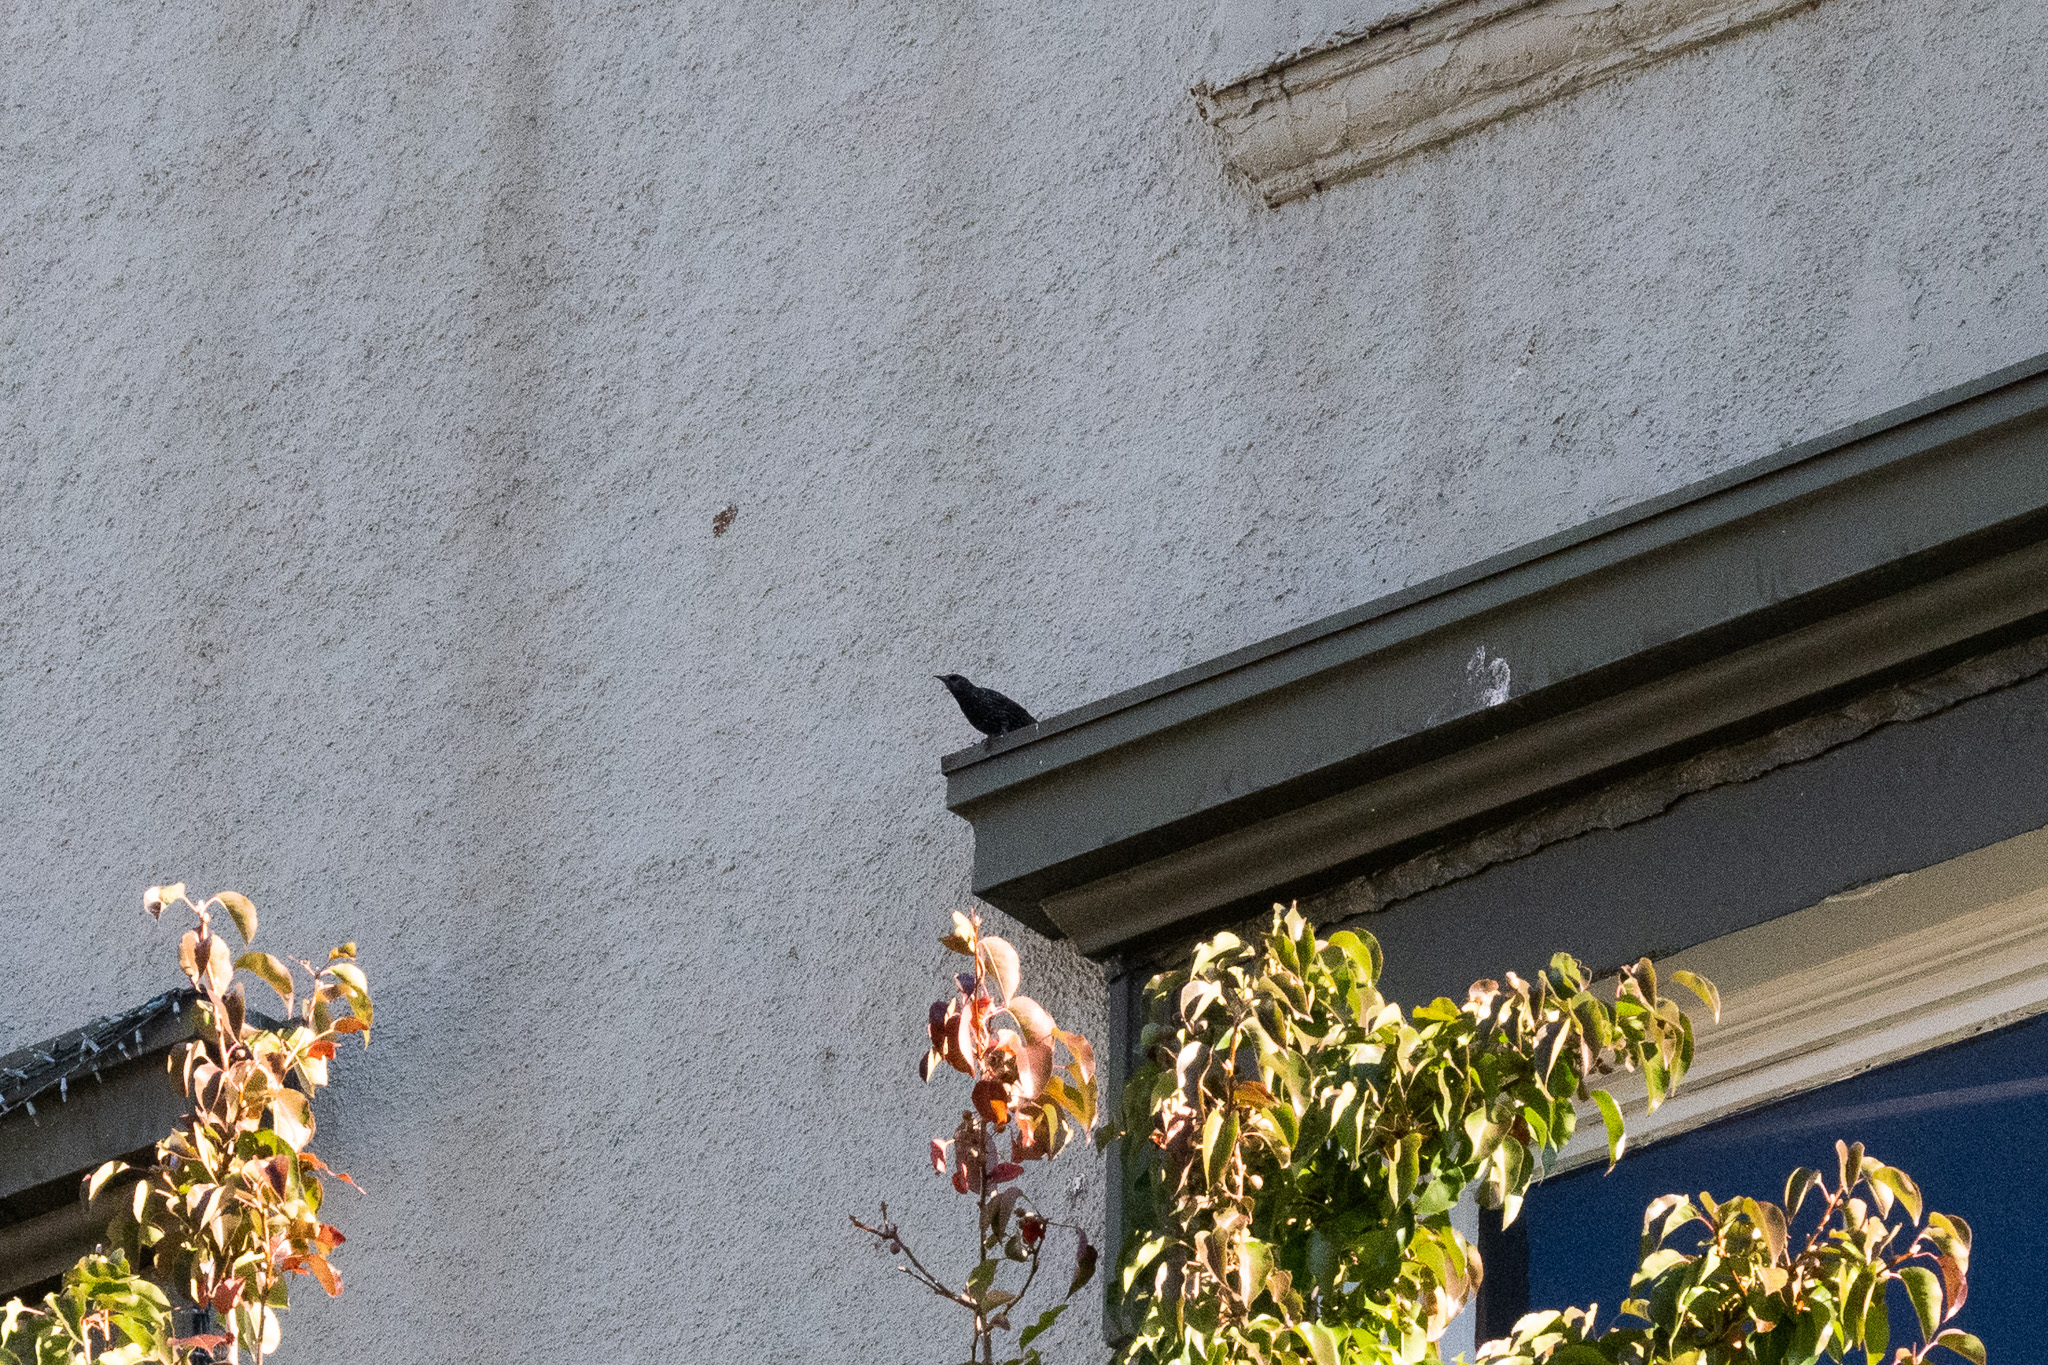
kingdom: Animalia
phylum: Chordata
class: Aves
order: Passeriformes
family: Sturnidae
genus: Sturnus
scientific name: Sturnus vulgaris
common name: Common starling
